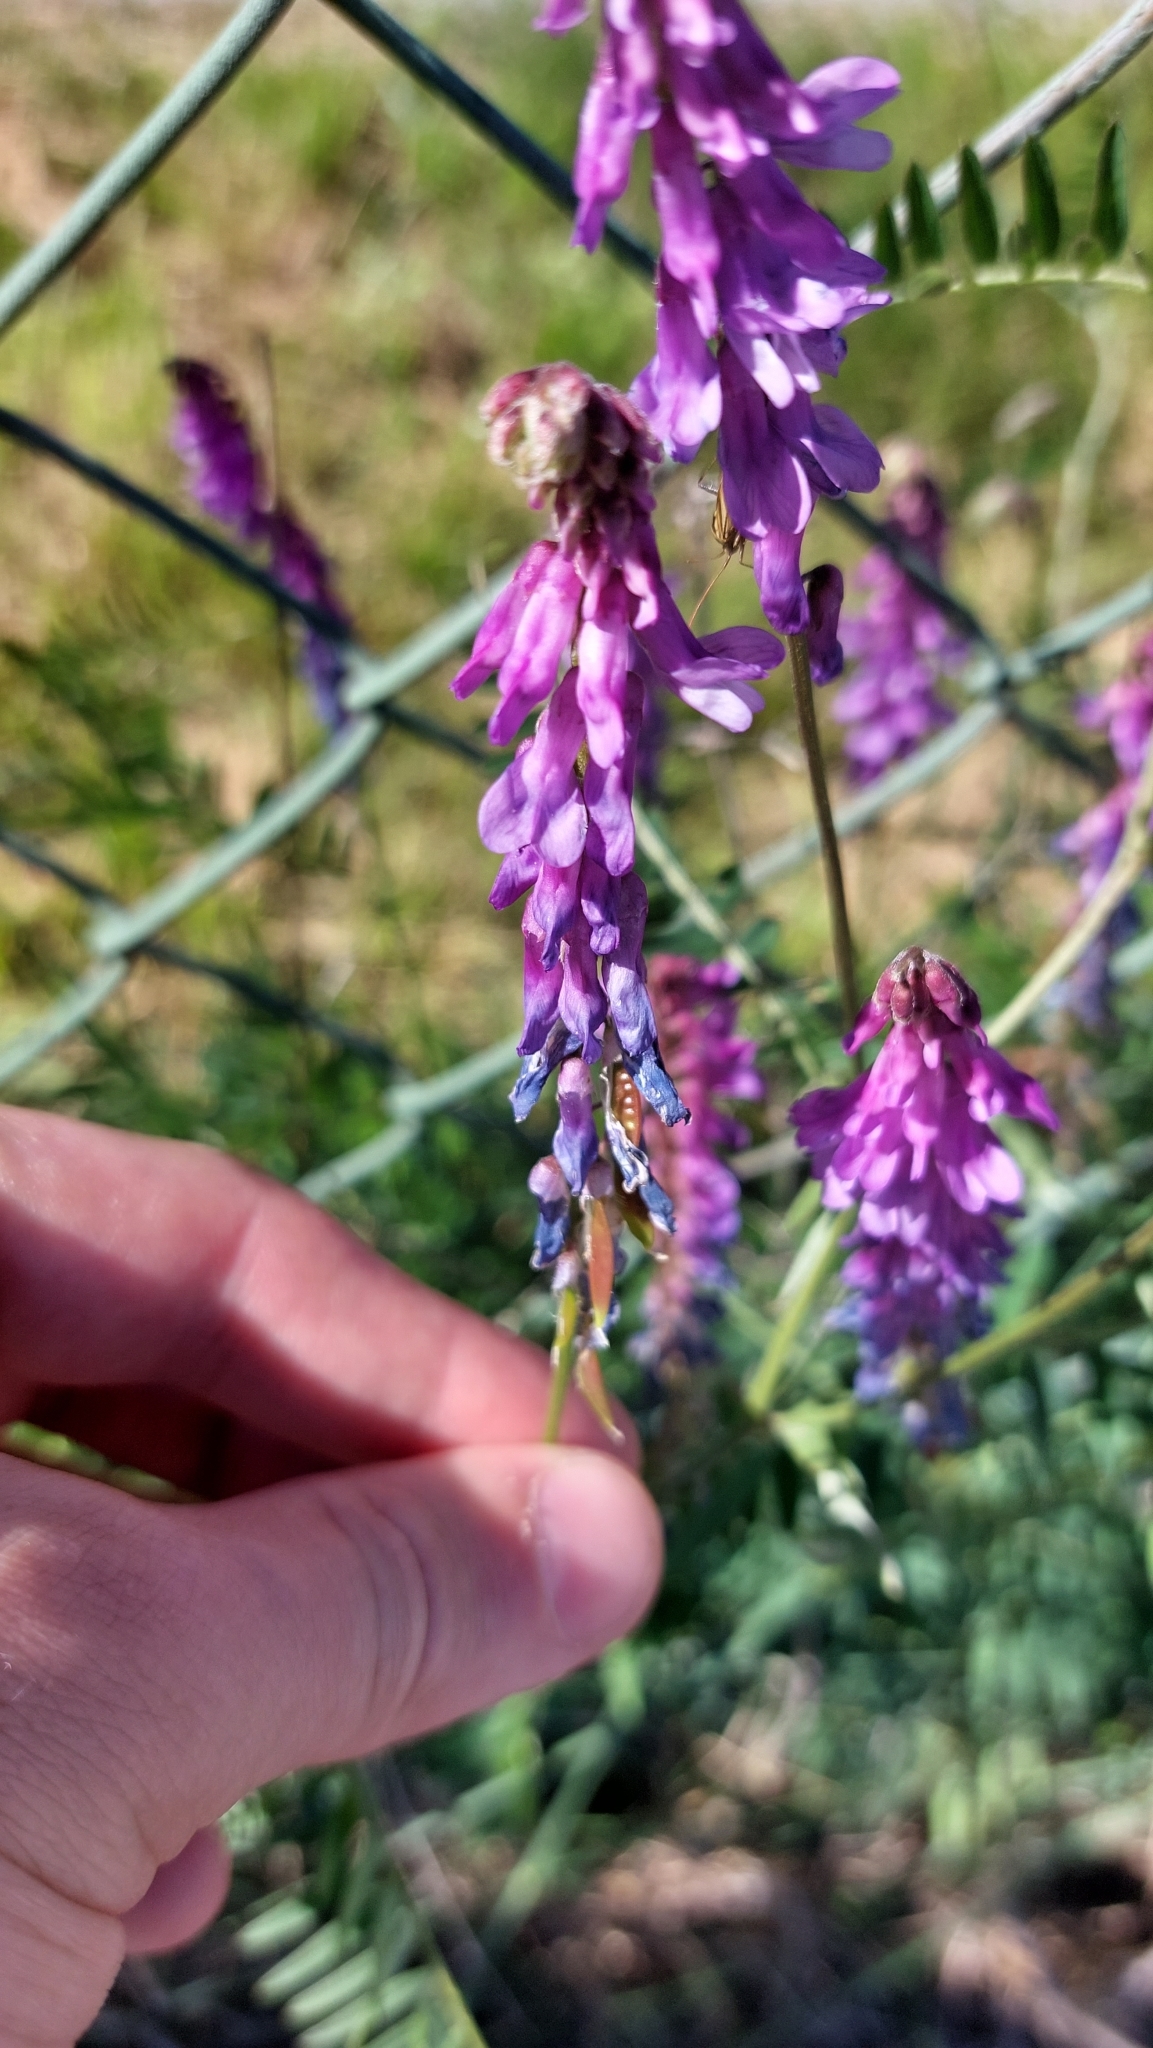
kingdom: Plantae
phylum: Tracheophyta
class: Magnoliopsida
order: Fabales
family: Fabaceae
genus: Vicia
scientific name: Vicia cracca
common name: Bird vetch
